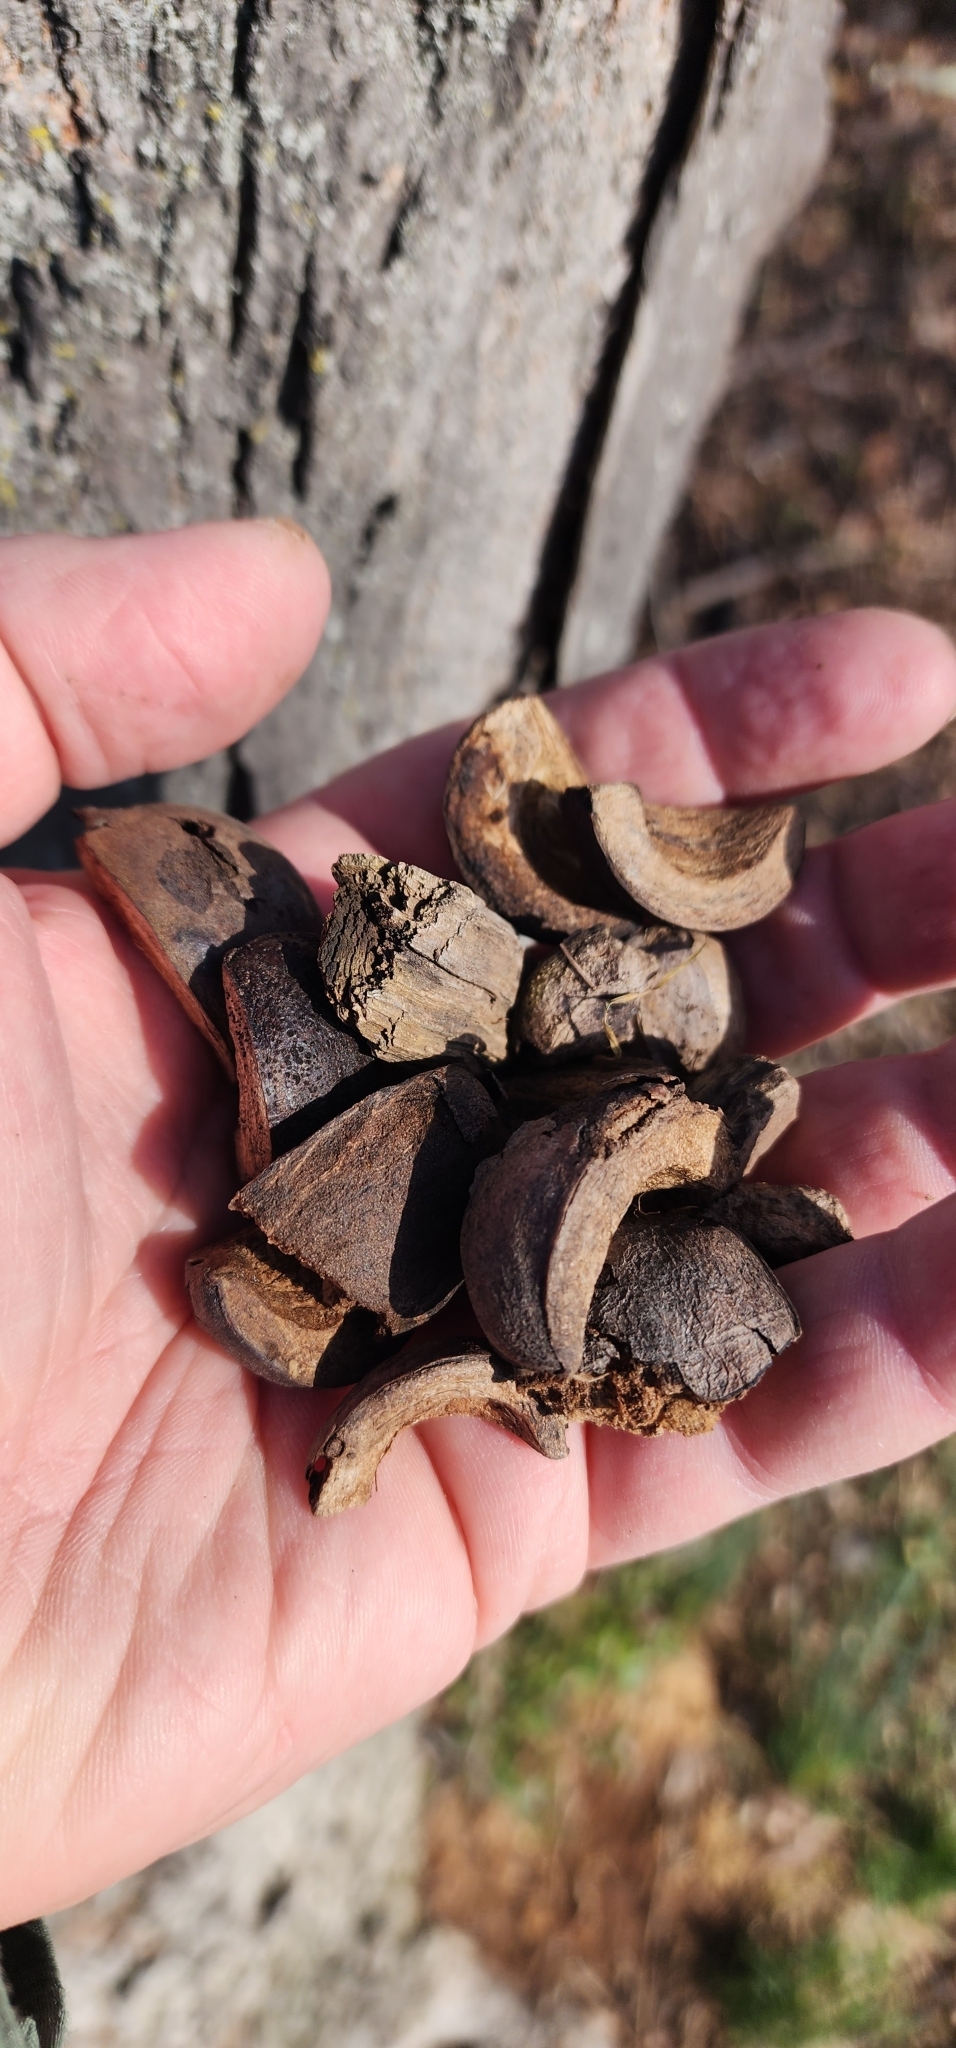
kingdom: Plantae
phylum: Tracheophyta
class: Magnoliopsida
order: Fagales
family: Juglandaceae
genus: Carya
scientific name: Carya ovata
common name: Shagbark hickory
